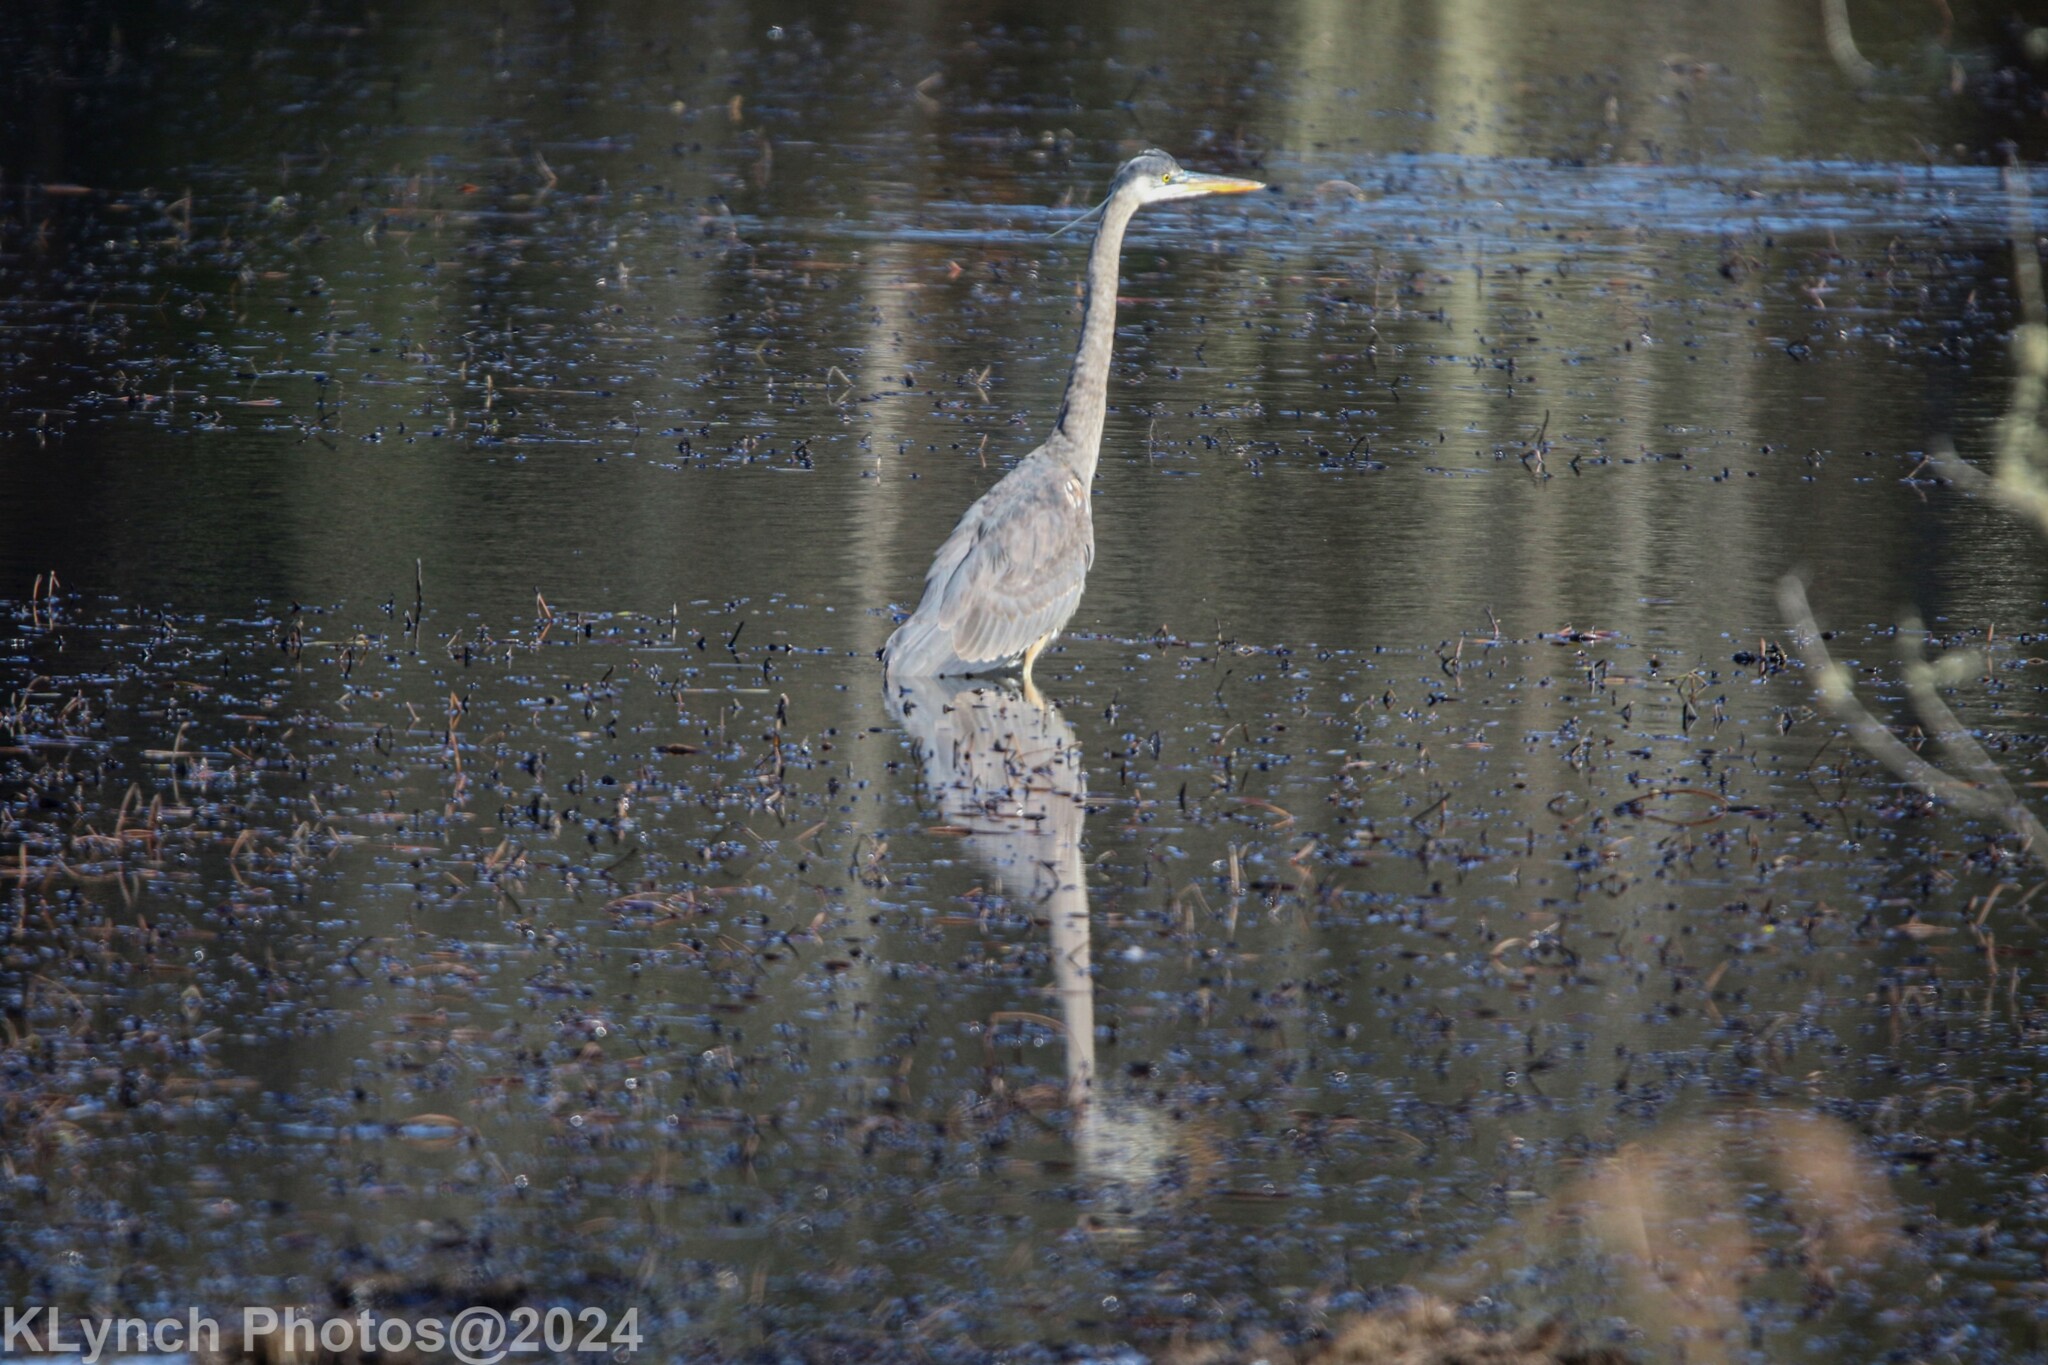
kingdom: Animalia
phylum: Chordata
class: Aves
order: Pelecaniformes
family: Ardeidae
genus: Ardea
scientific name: Ardea herodias
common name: Great blue heron
